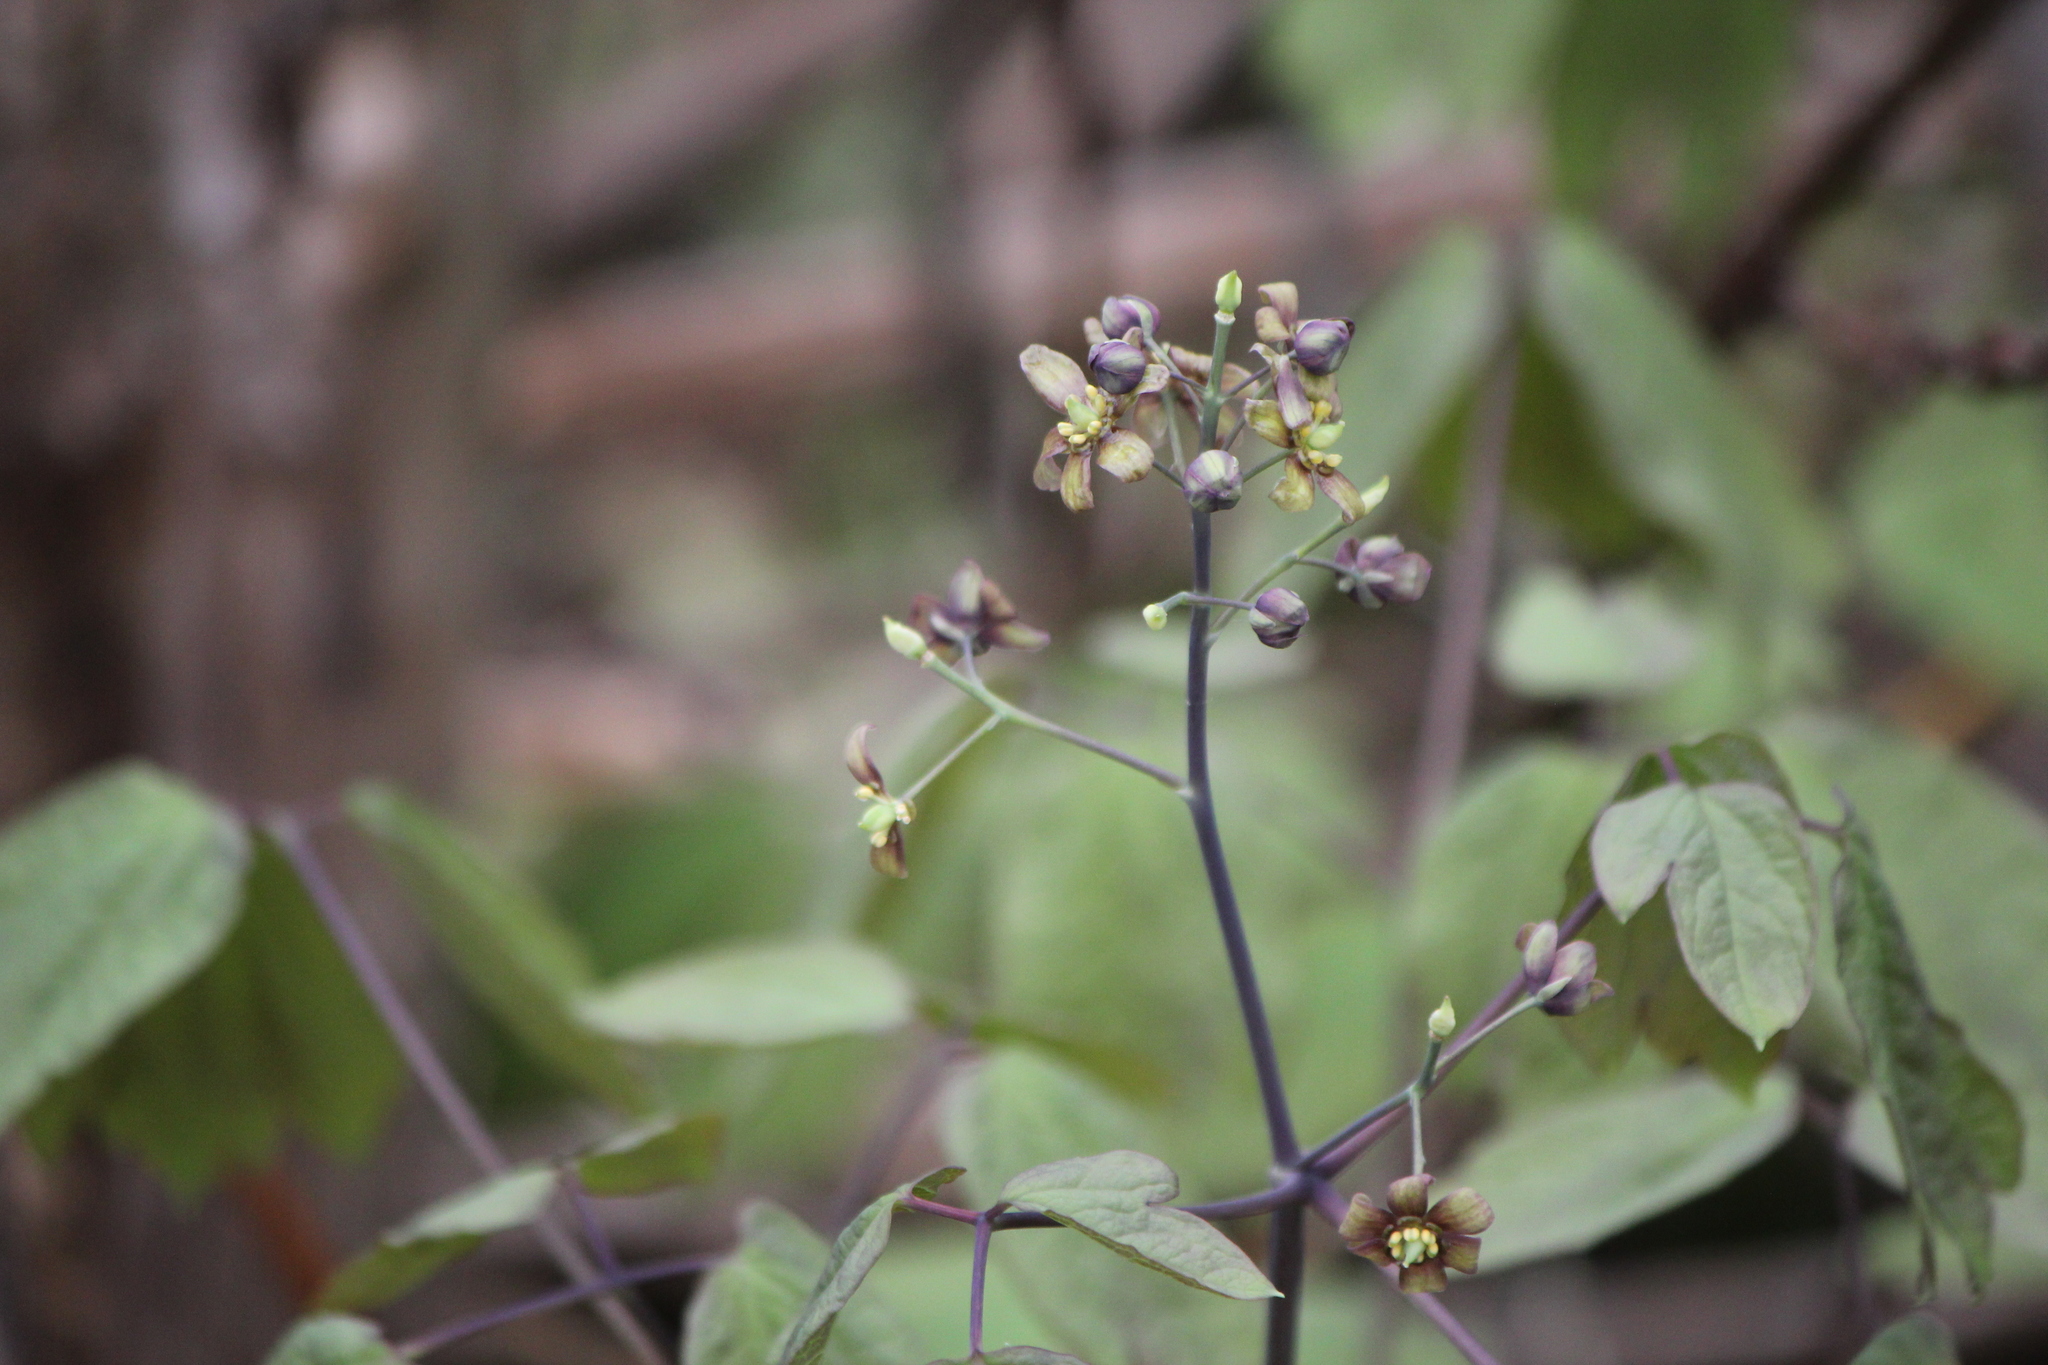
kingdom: Plantae
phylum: Tracheophyta
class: Magnoliopsida
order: Ranunculales
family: Berberidaceae
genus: Caulophyllum
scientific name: Caulophyllum thalictroides
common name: Blue cohosh
